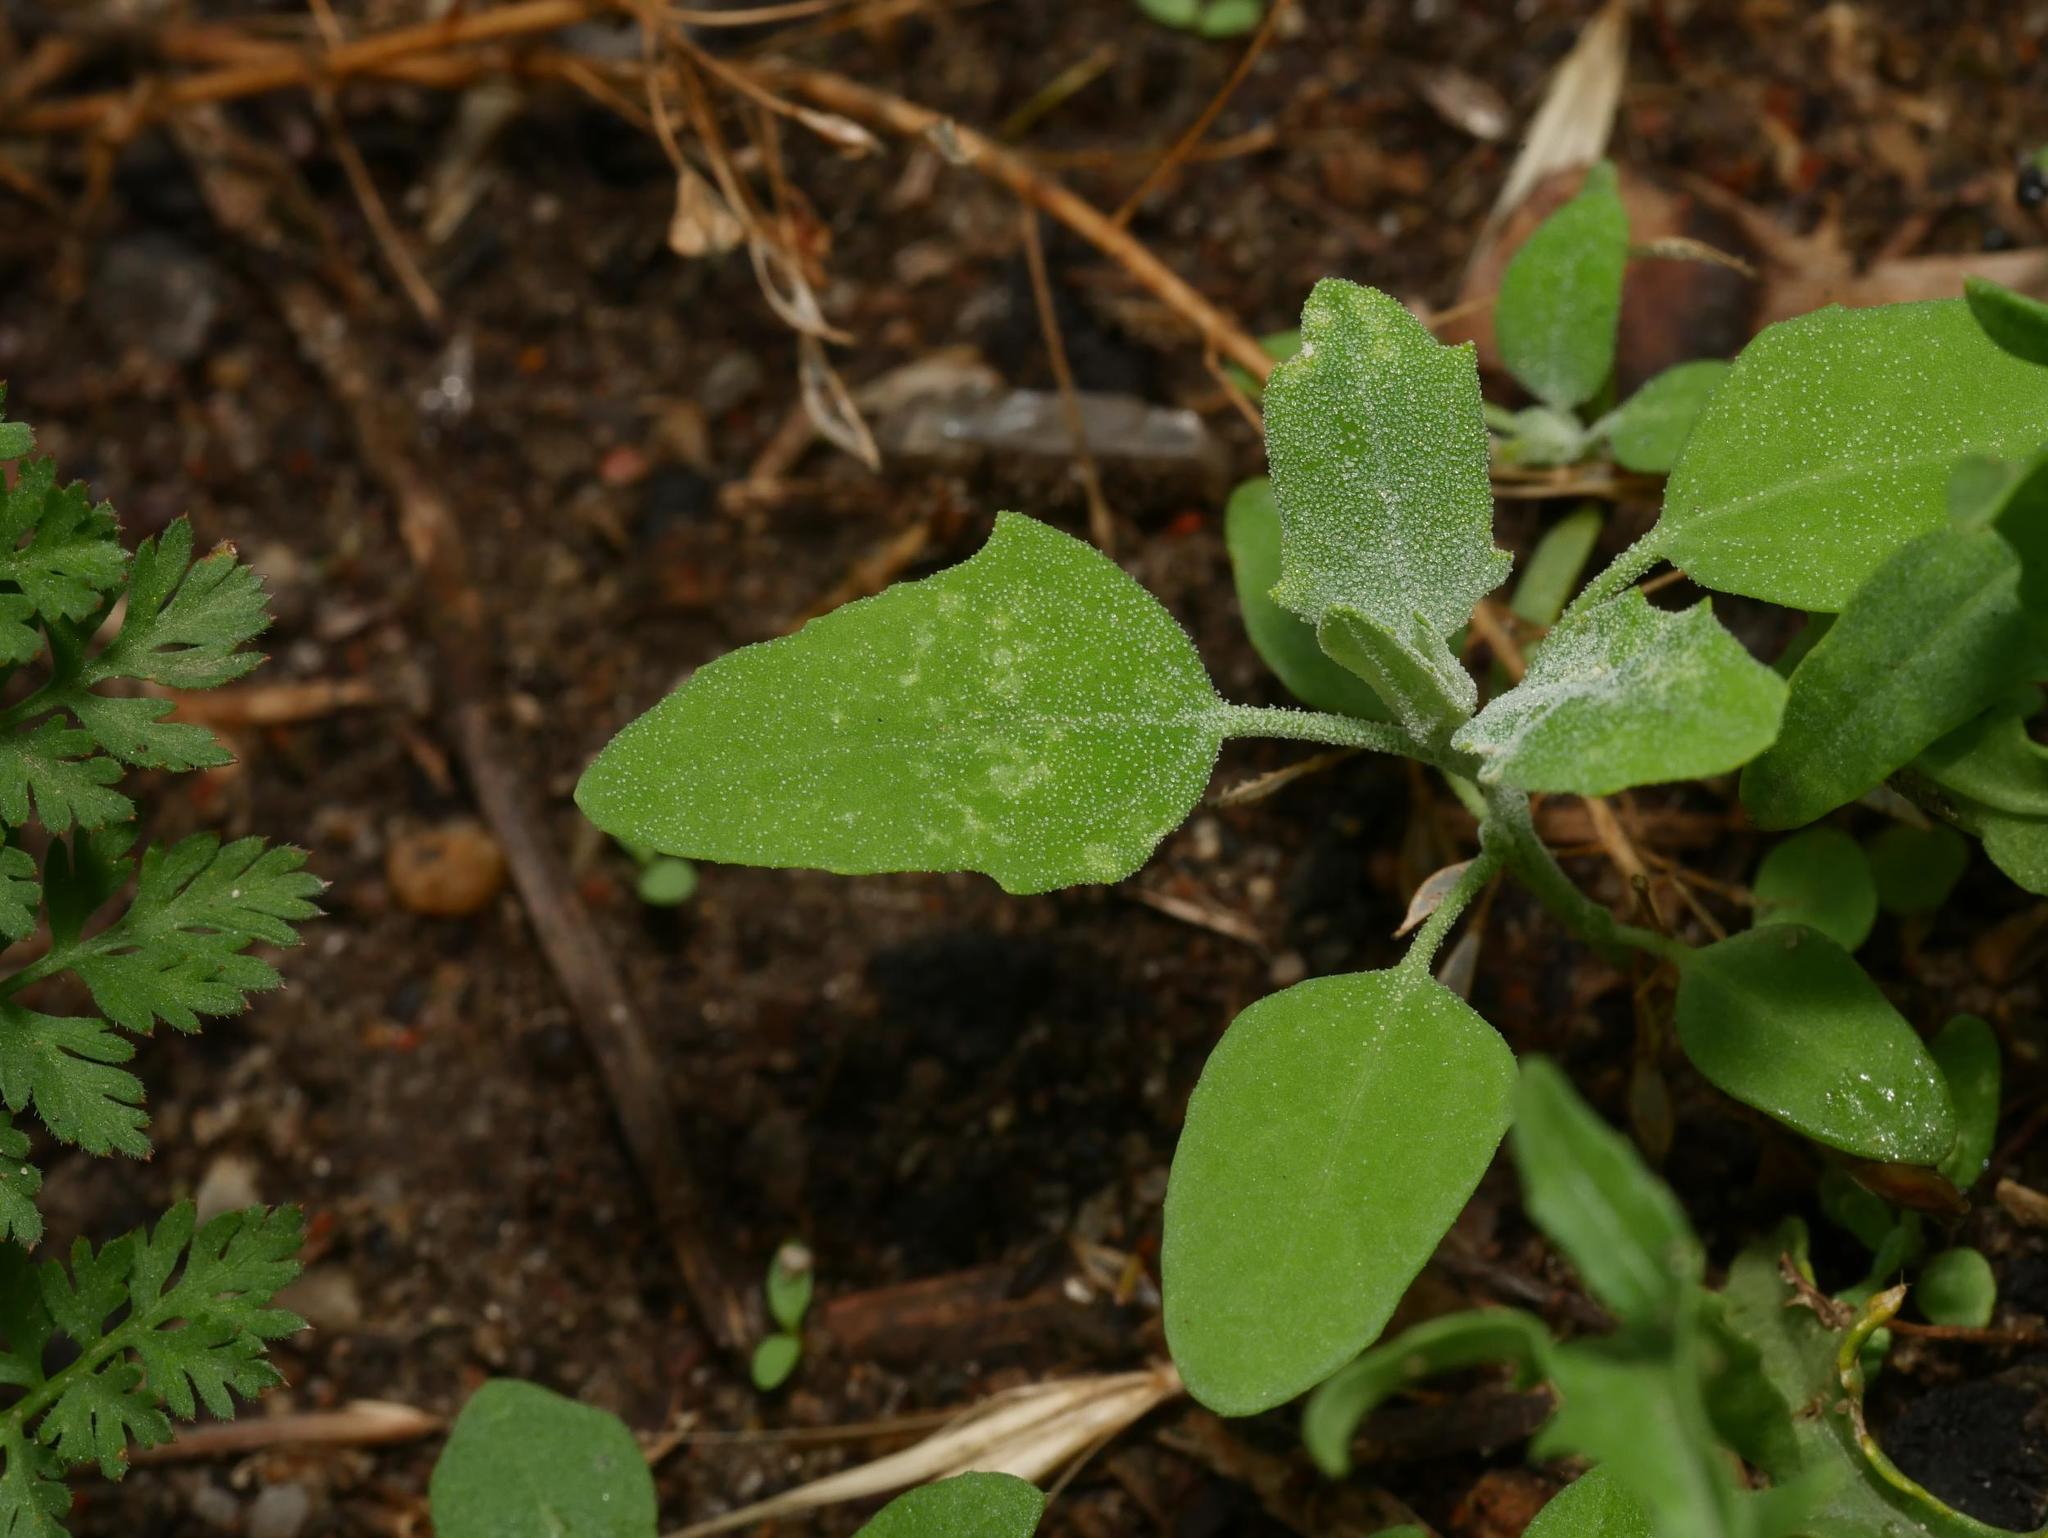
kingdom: Plantae
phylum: Tracheophyta
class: Magnoliopsida
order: Caryophyllales
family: Amaranthaceae
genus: Chenopodium
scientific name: Chenopodium album
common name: Fat-hen
